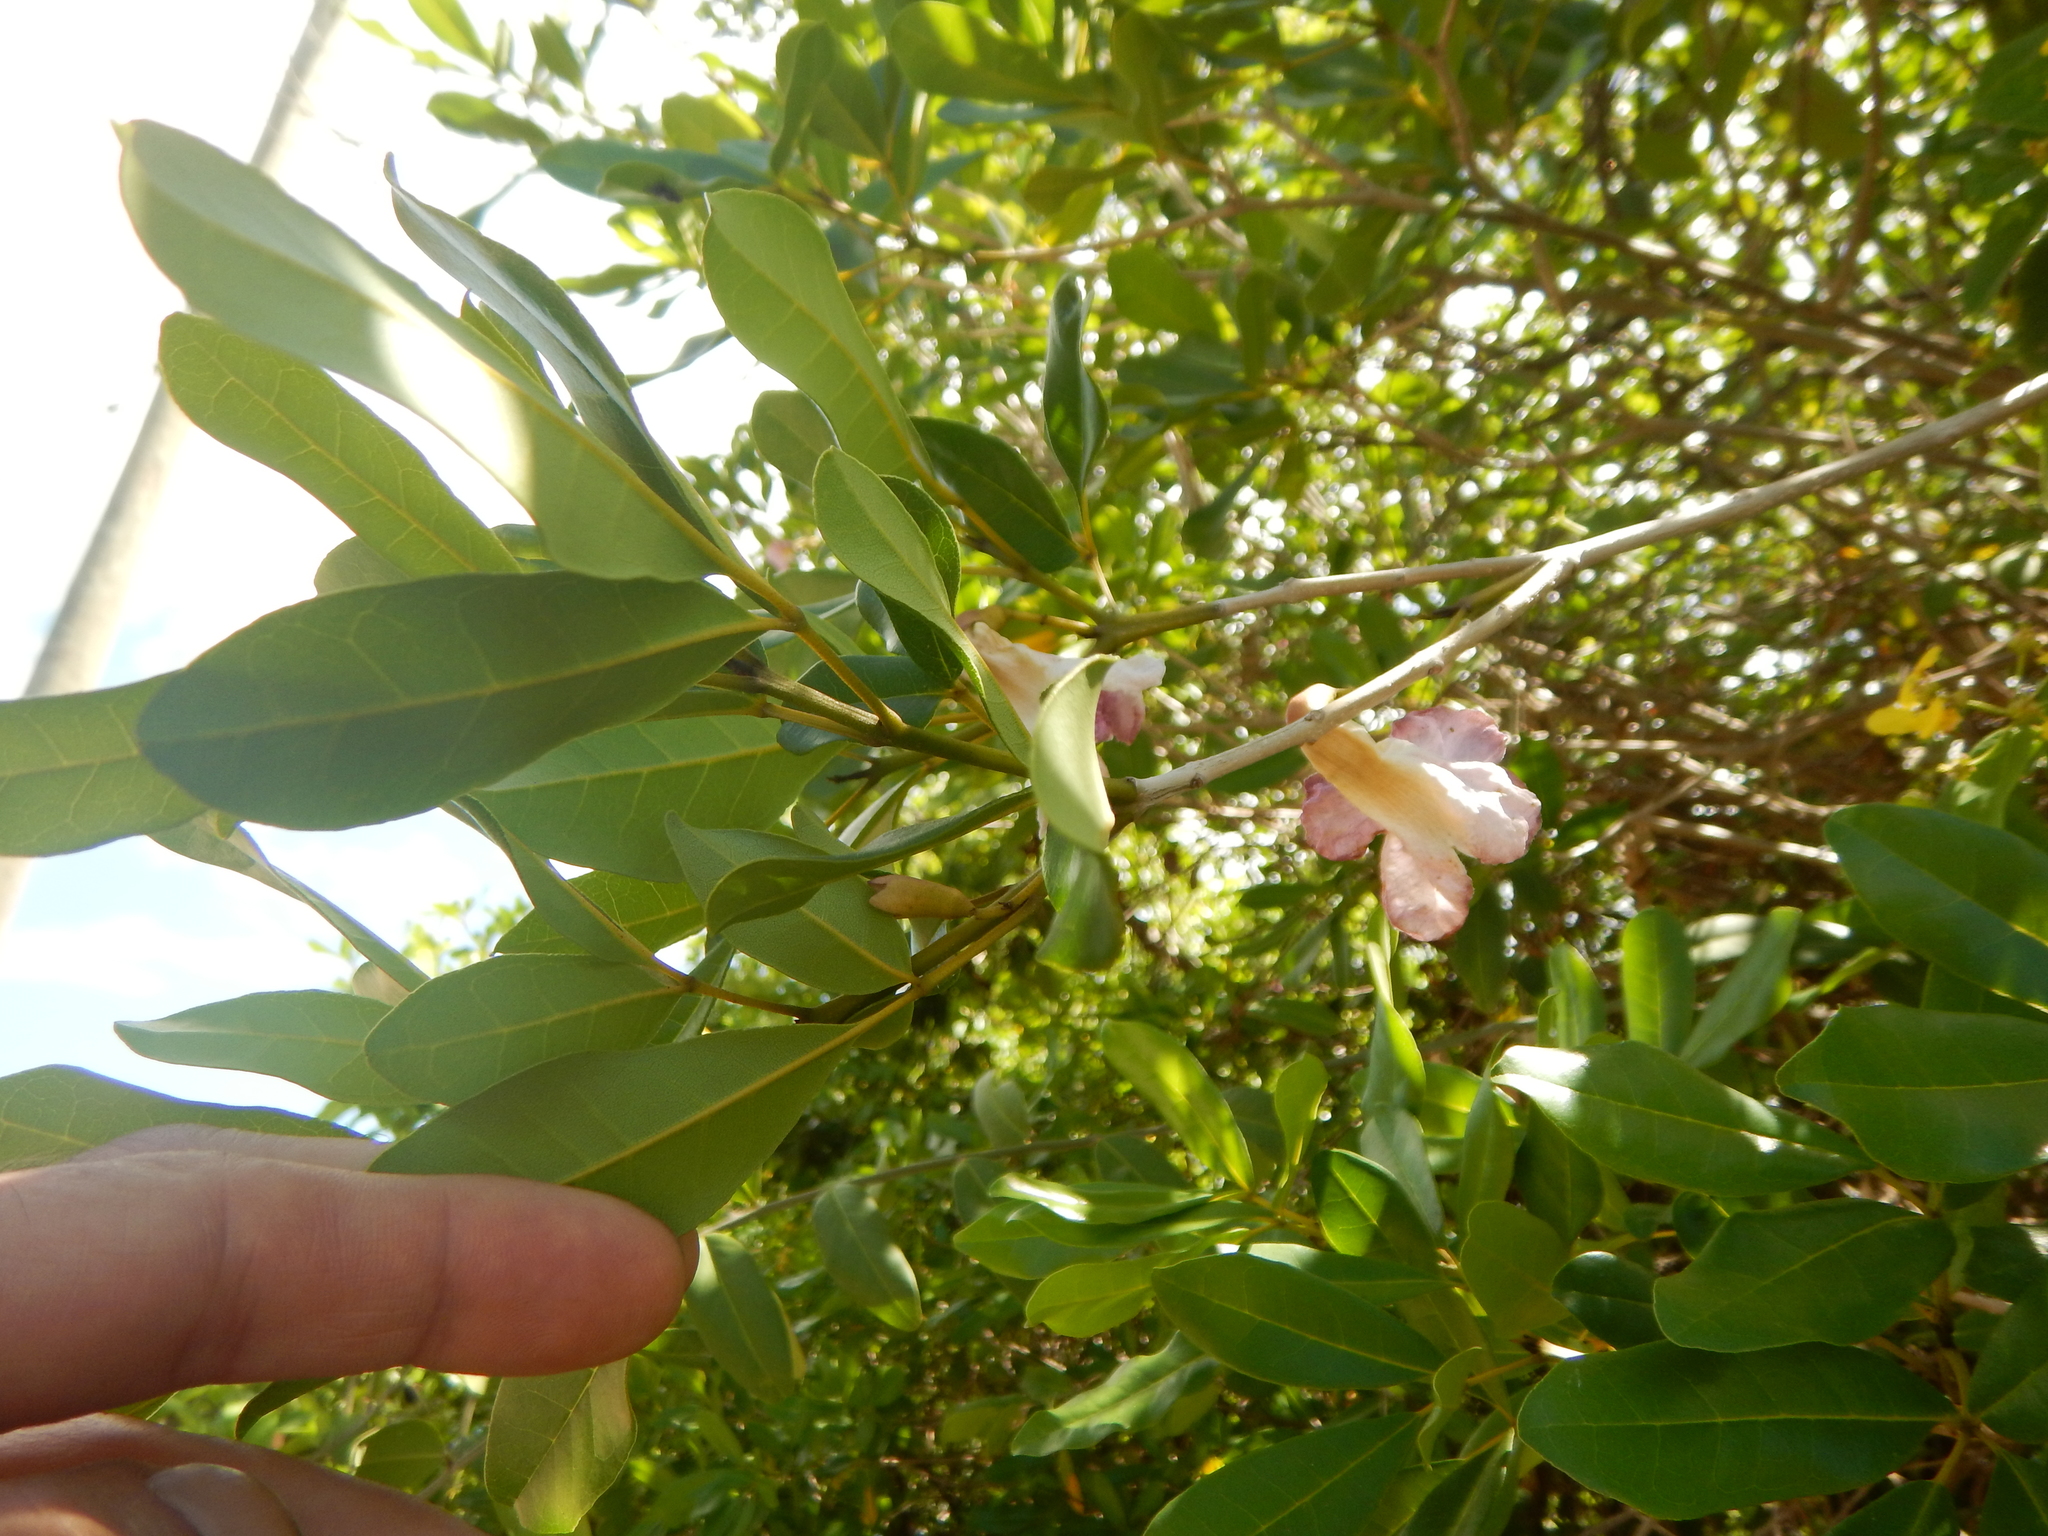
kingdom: Plantae
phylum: Tracheophyta
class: Magnoliopsida
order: Lamiales
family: Bignoniaceae
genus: Tabebuia
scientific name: Tabebuia heterophylla
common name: White cedar
